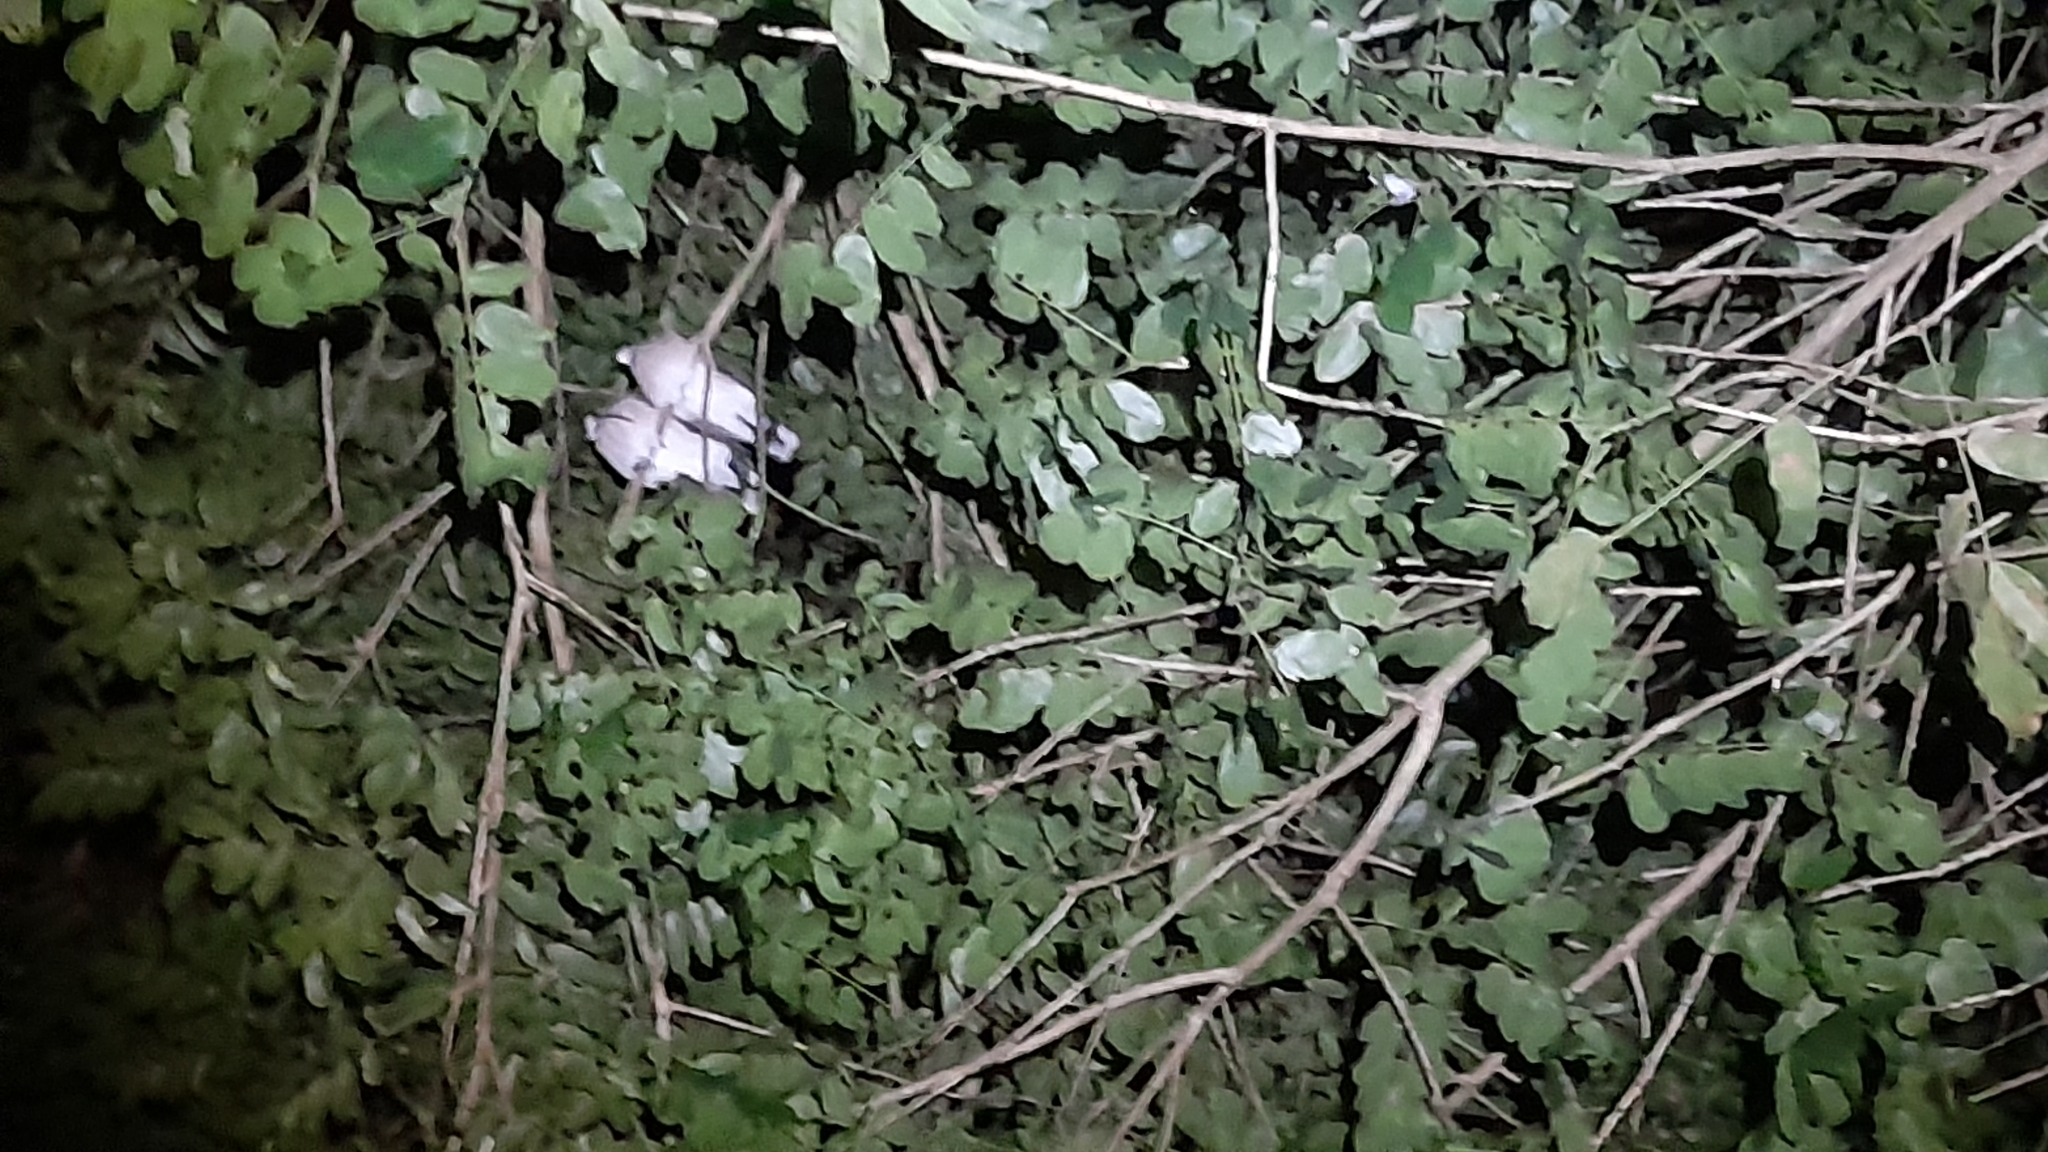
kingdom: Animalia
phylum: Chordata
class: Aves
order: Columbiformes
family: Columbidae
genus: Leptotila
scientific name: Leptotila verreauxi
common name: White-tipped dove
